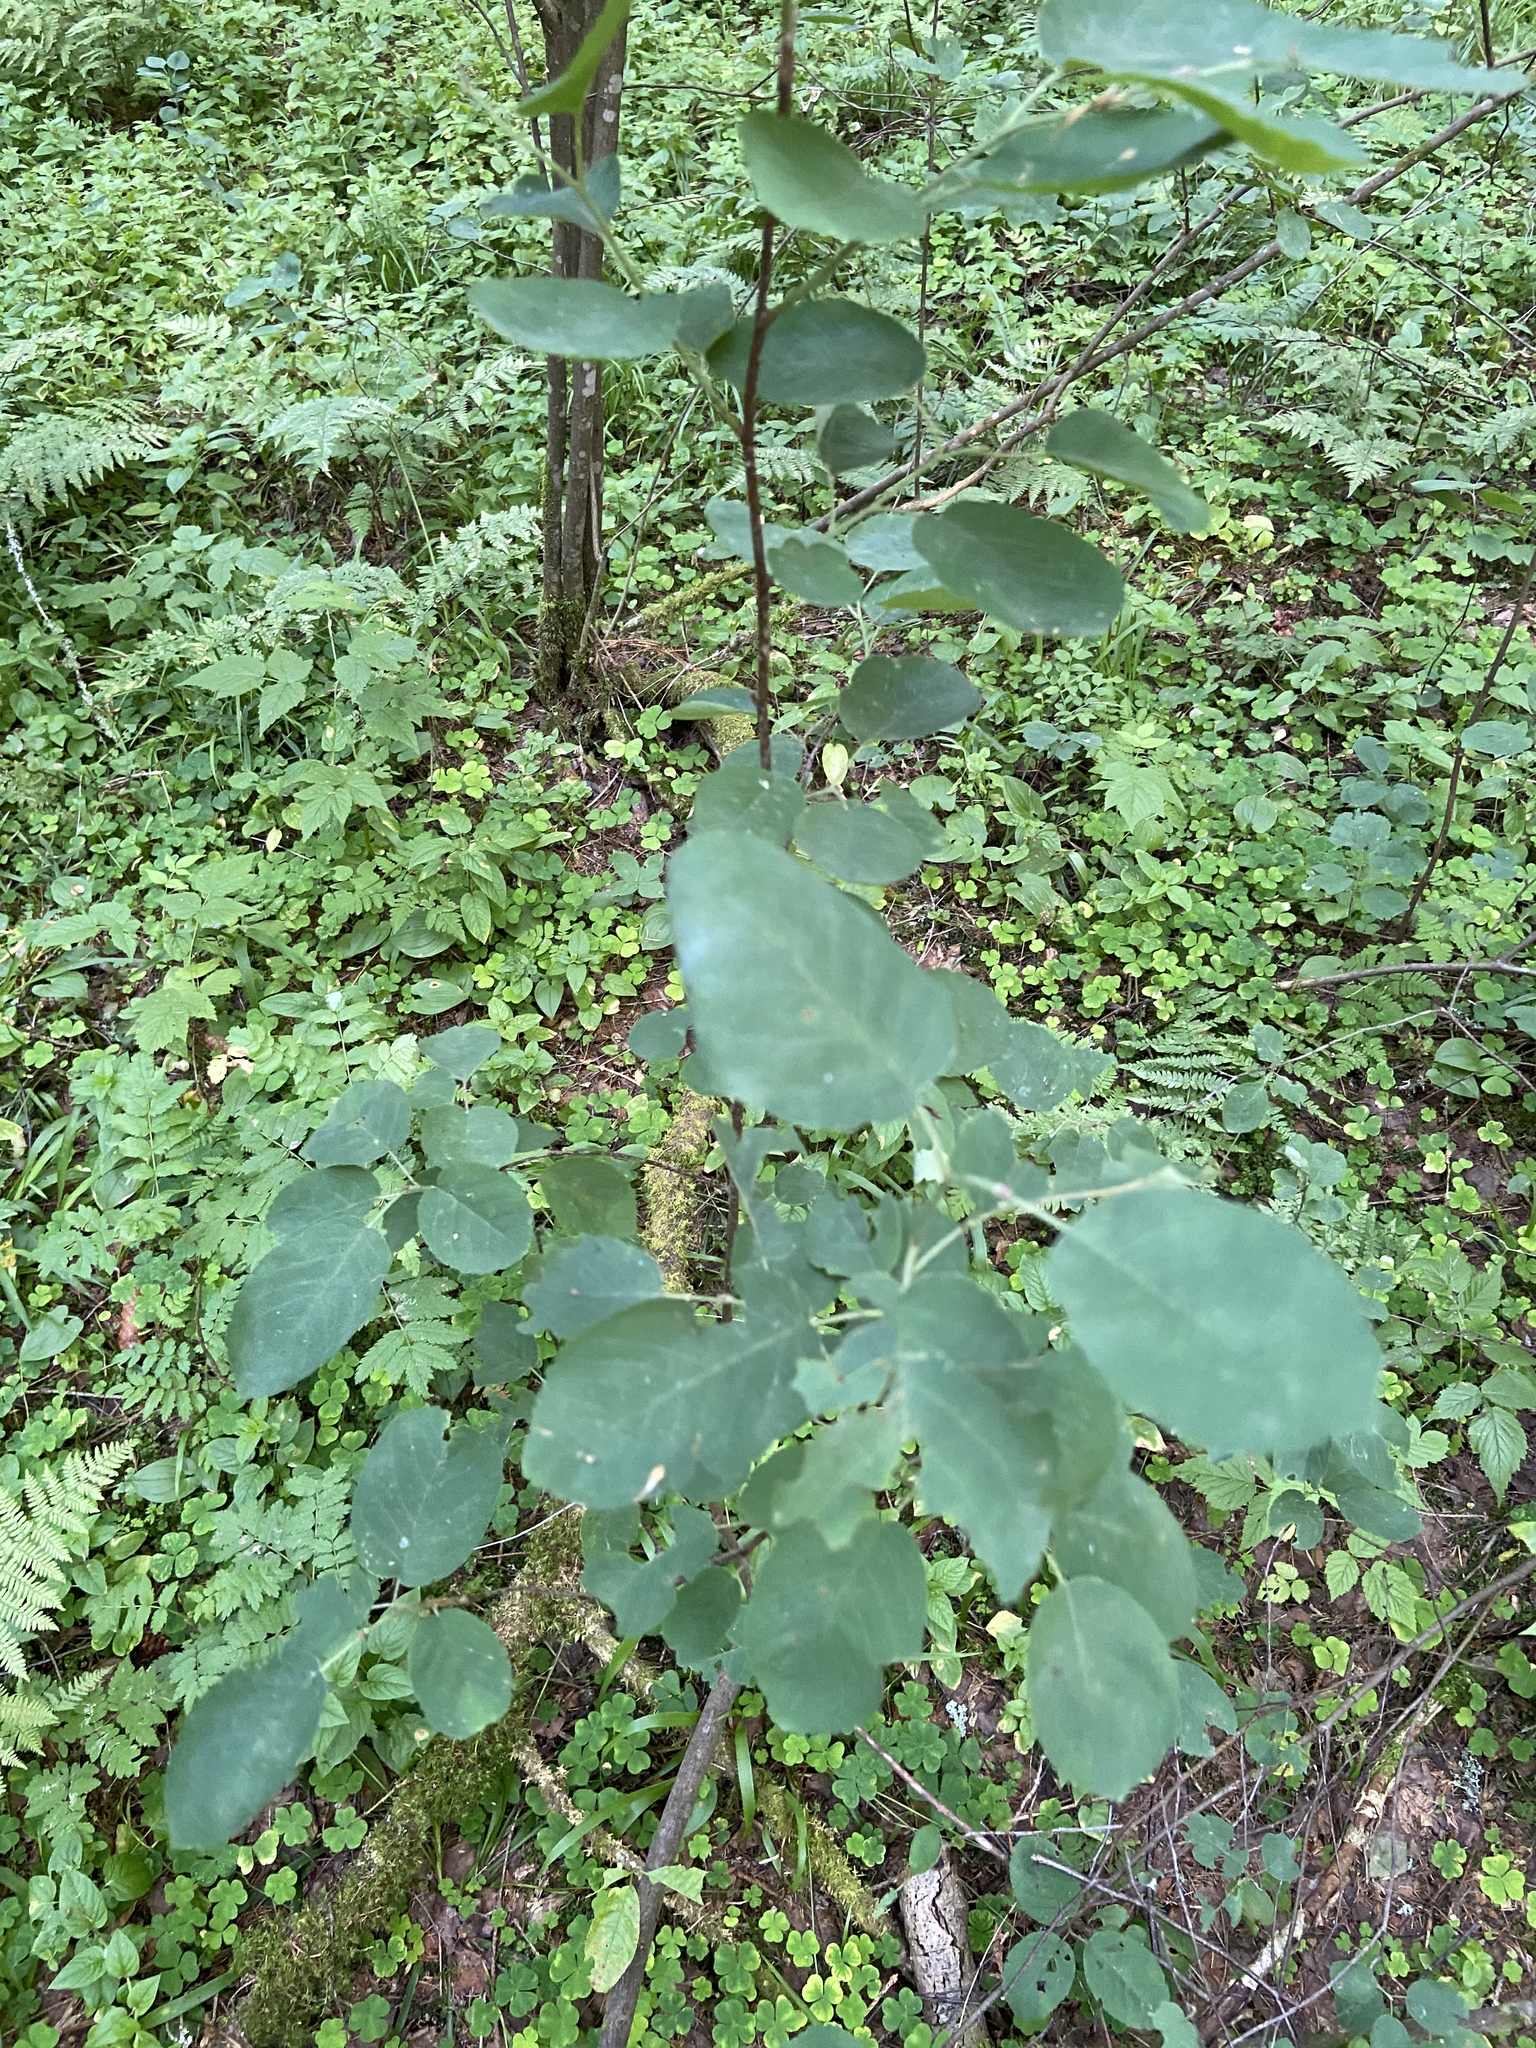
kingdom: Plantae
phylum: Tracheophyta
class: Magnoliopsida
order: Rosales
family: Rosaceae
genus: Amelanchier
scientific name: Amelanchier
